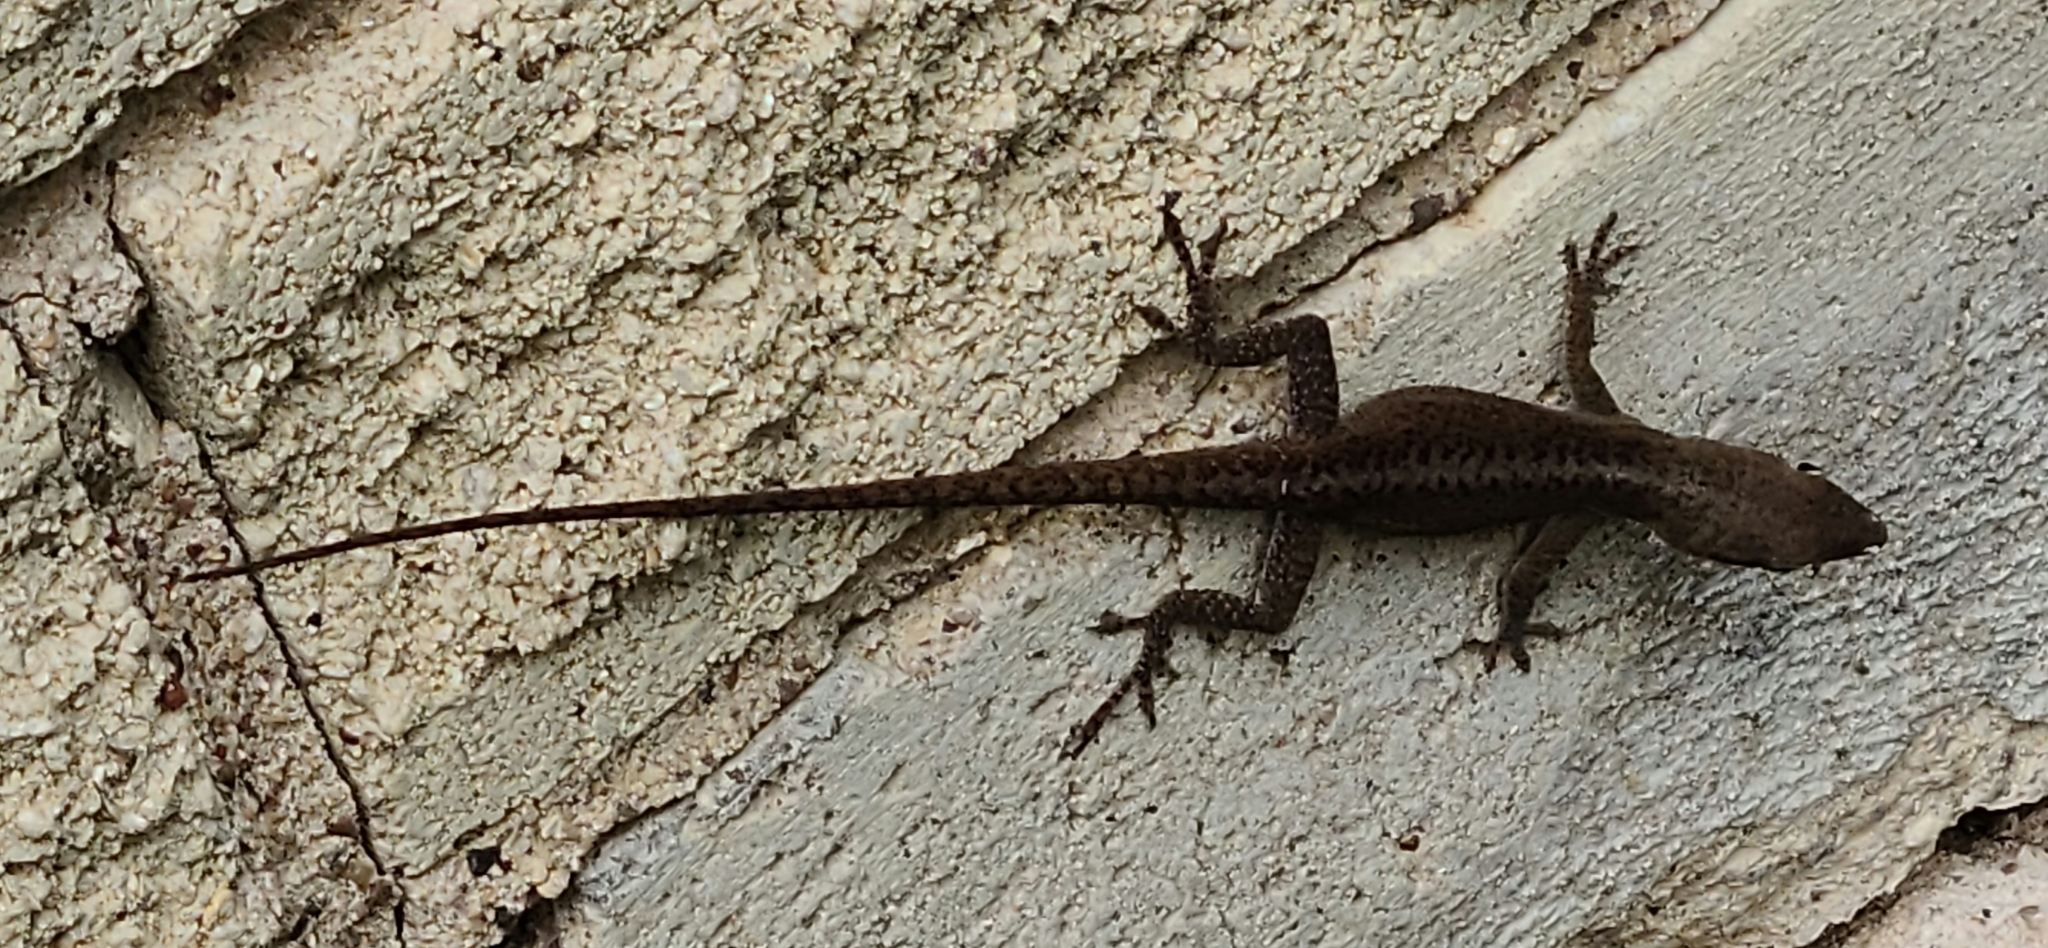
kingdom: Animalia
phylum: Chordata
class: Squamata
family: Dactyloidae
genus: Anolis
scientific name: Anolis carolinensis
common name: Green anole
